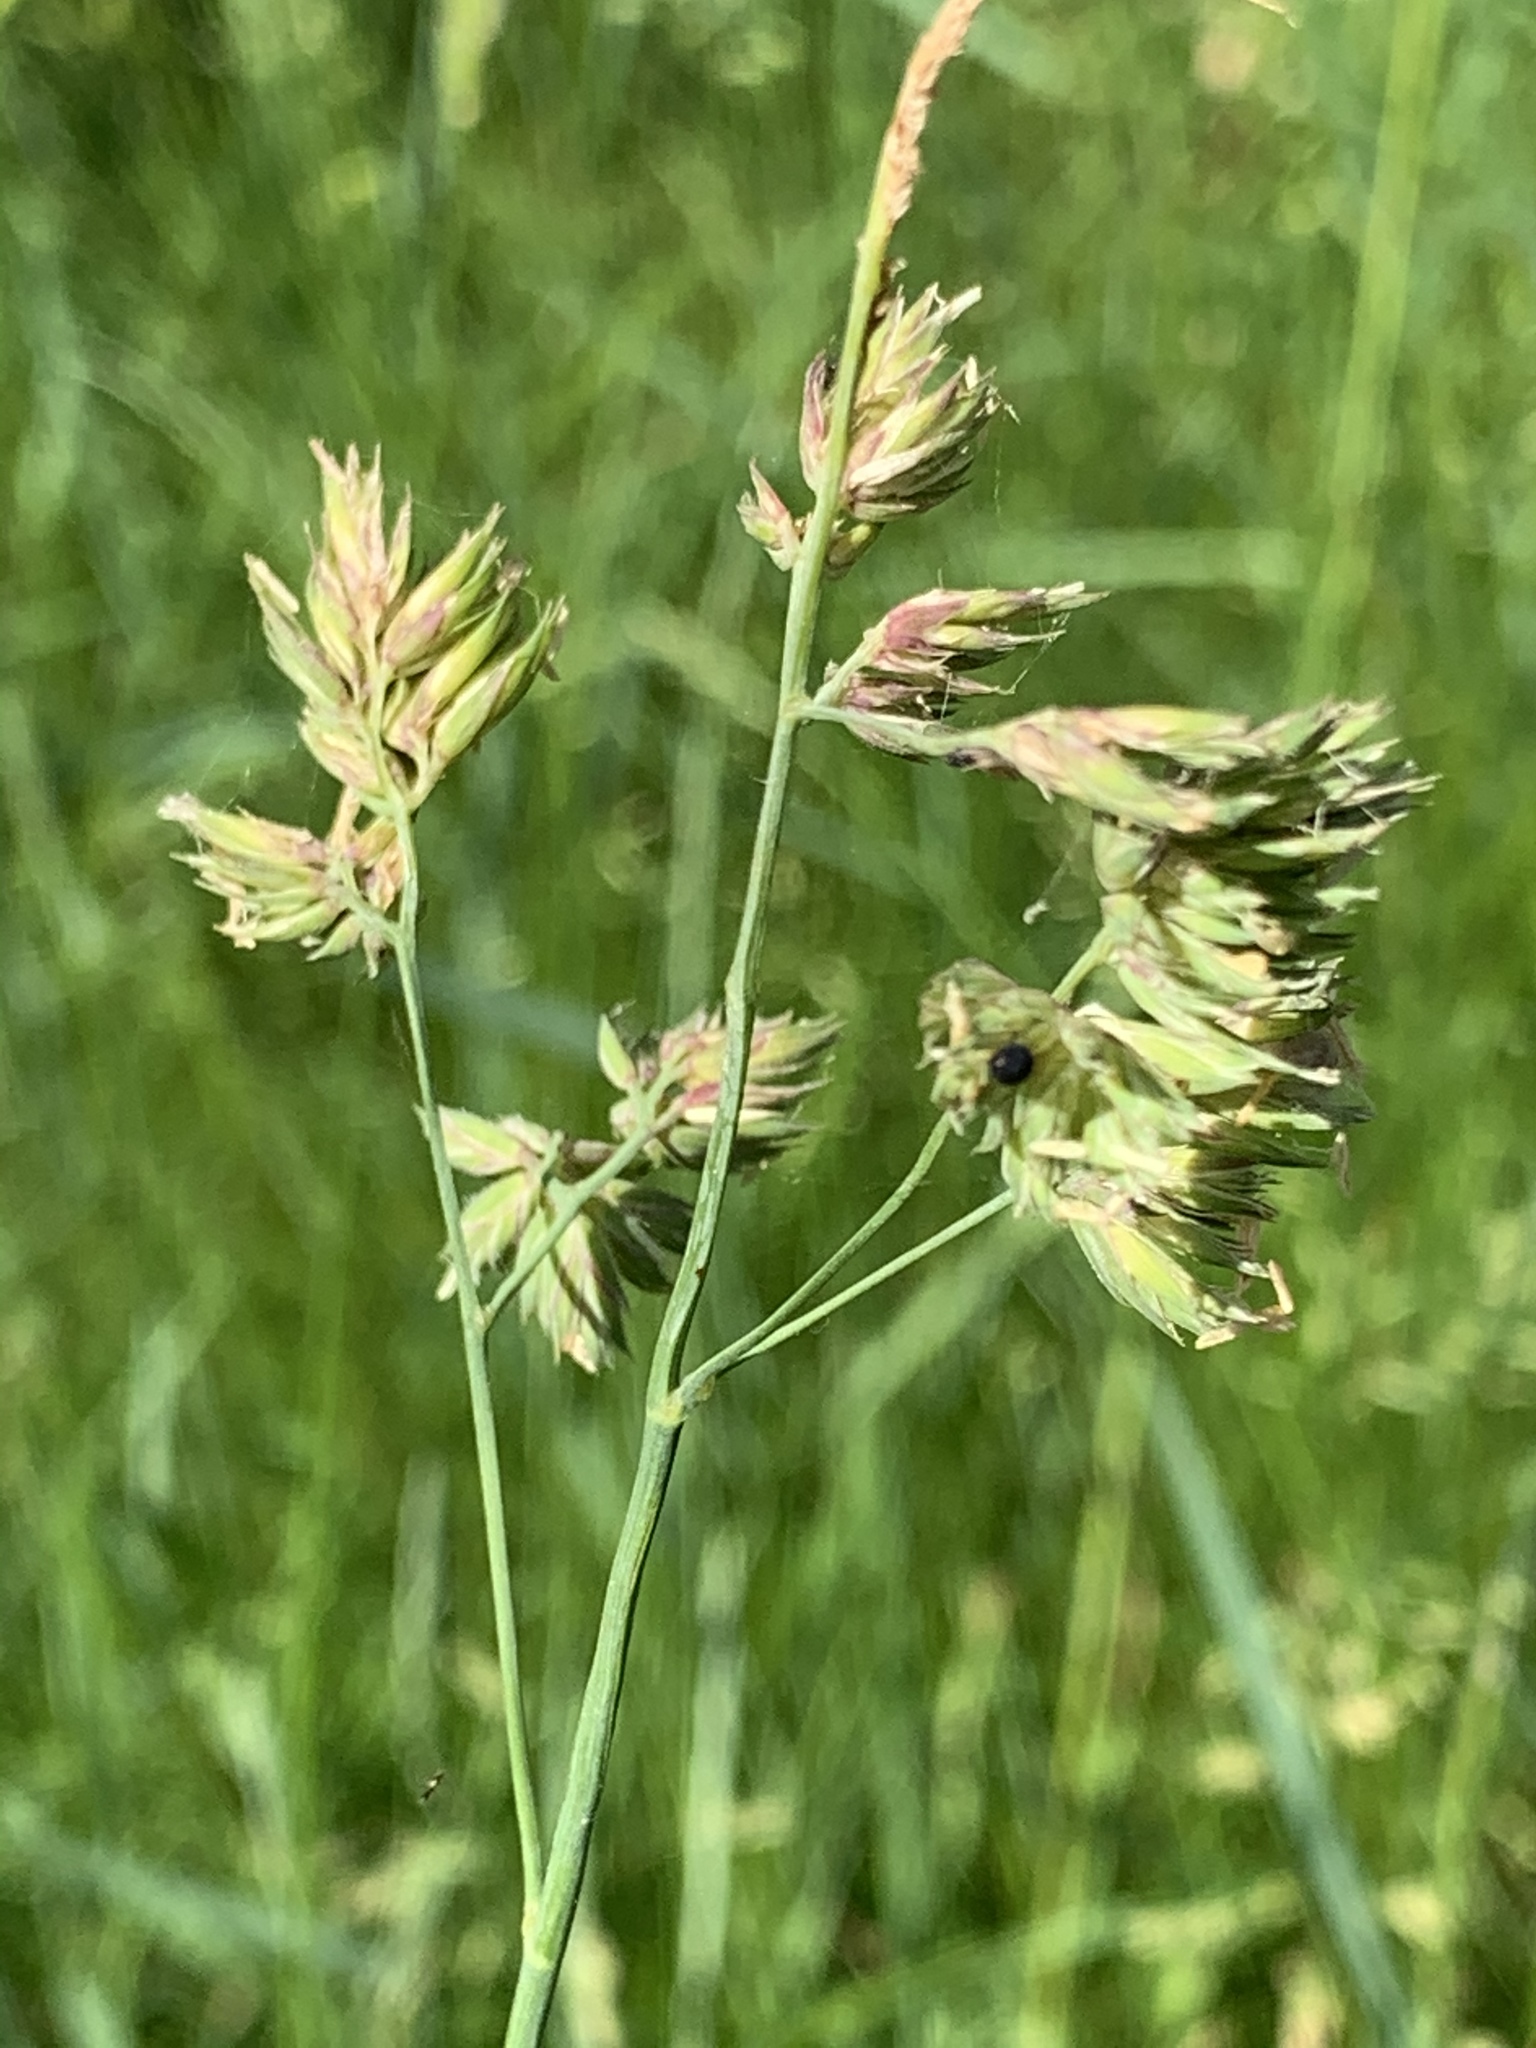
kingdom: Plantae
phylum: Tracheophyta
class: Liliopsida
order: Poales
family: Poaceae
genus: Dactylis
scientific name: Dactylis glomerata
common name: Orchardgrass
